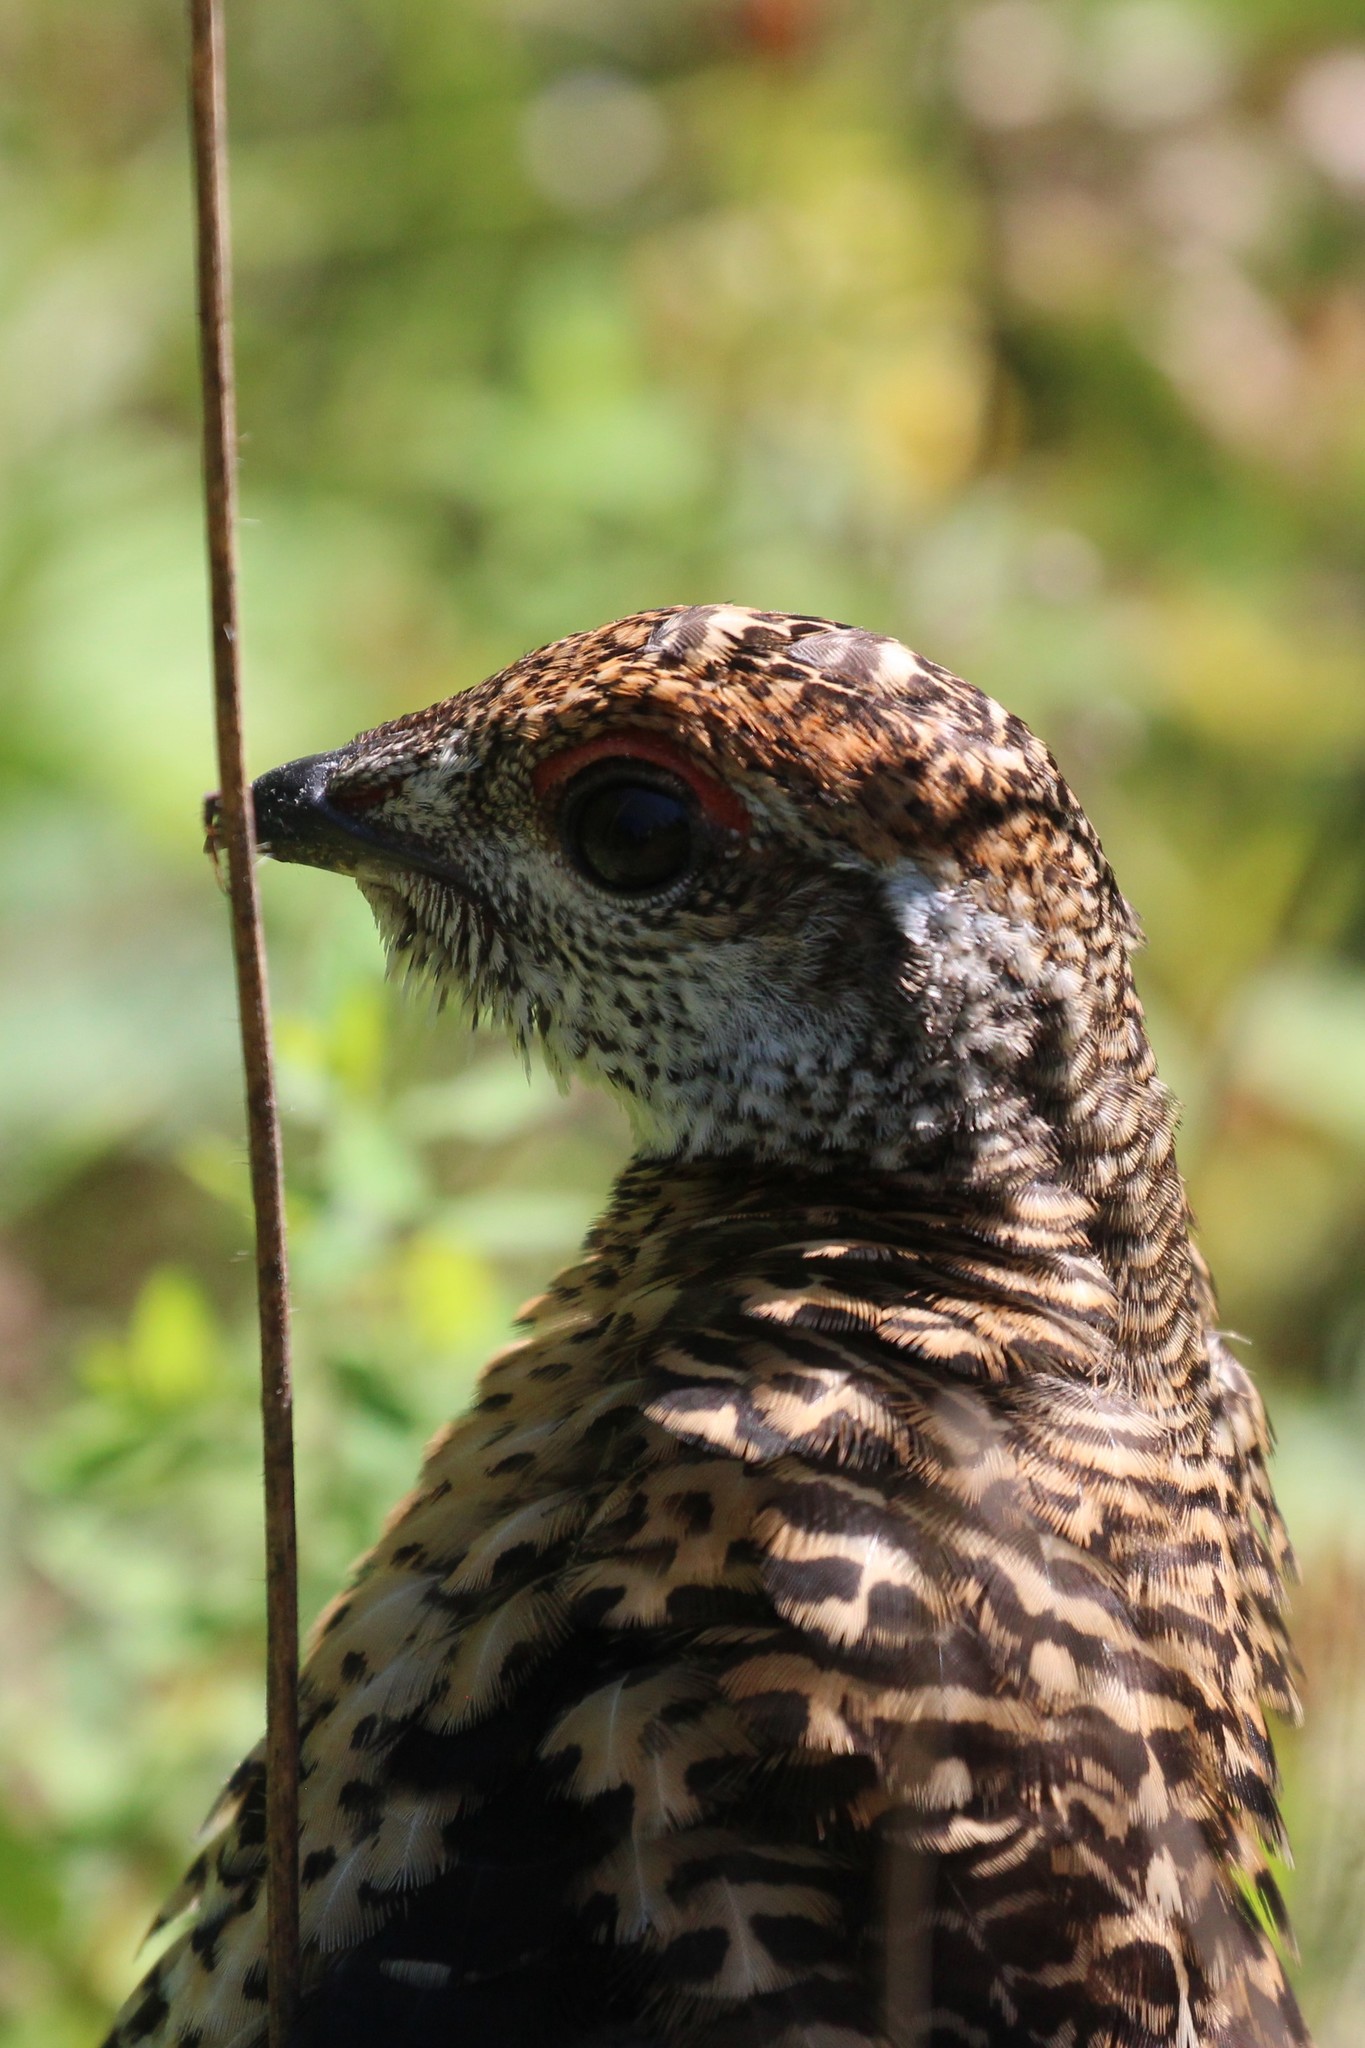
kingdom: Animalia
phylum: Chordata
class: Aves
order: Galliformes
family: Phasianidae
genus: Canachites
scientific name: Canachites canadensis
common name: Spruce grouse
